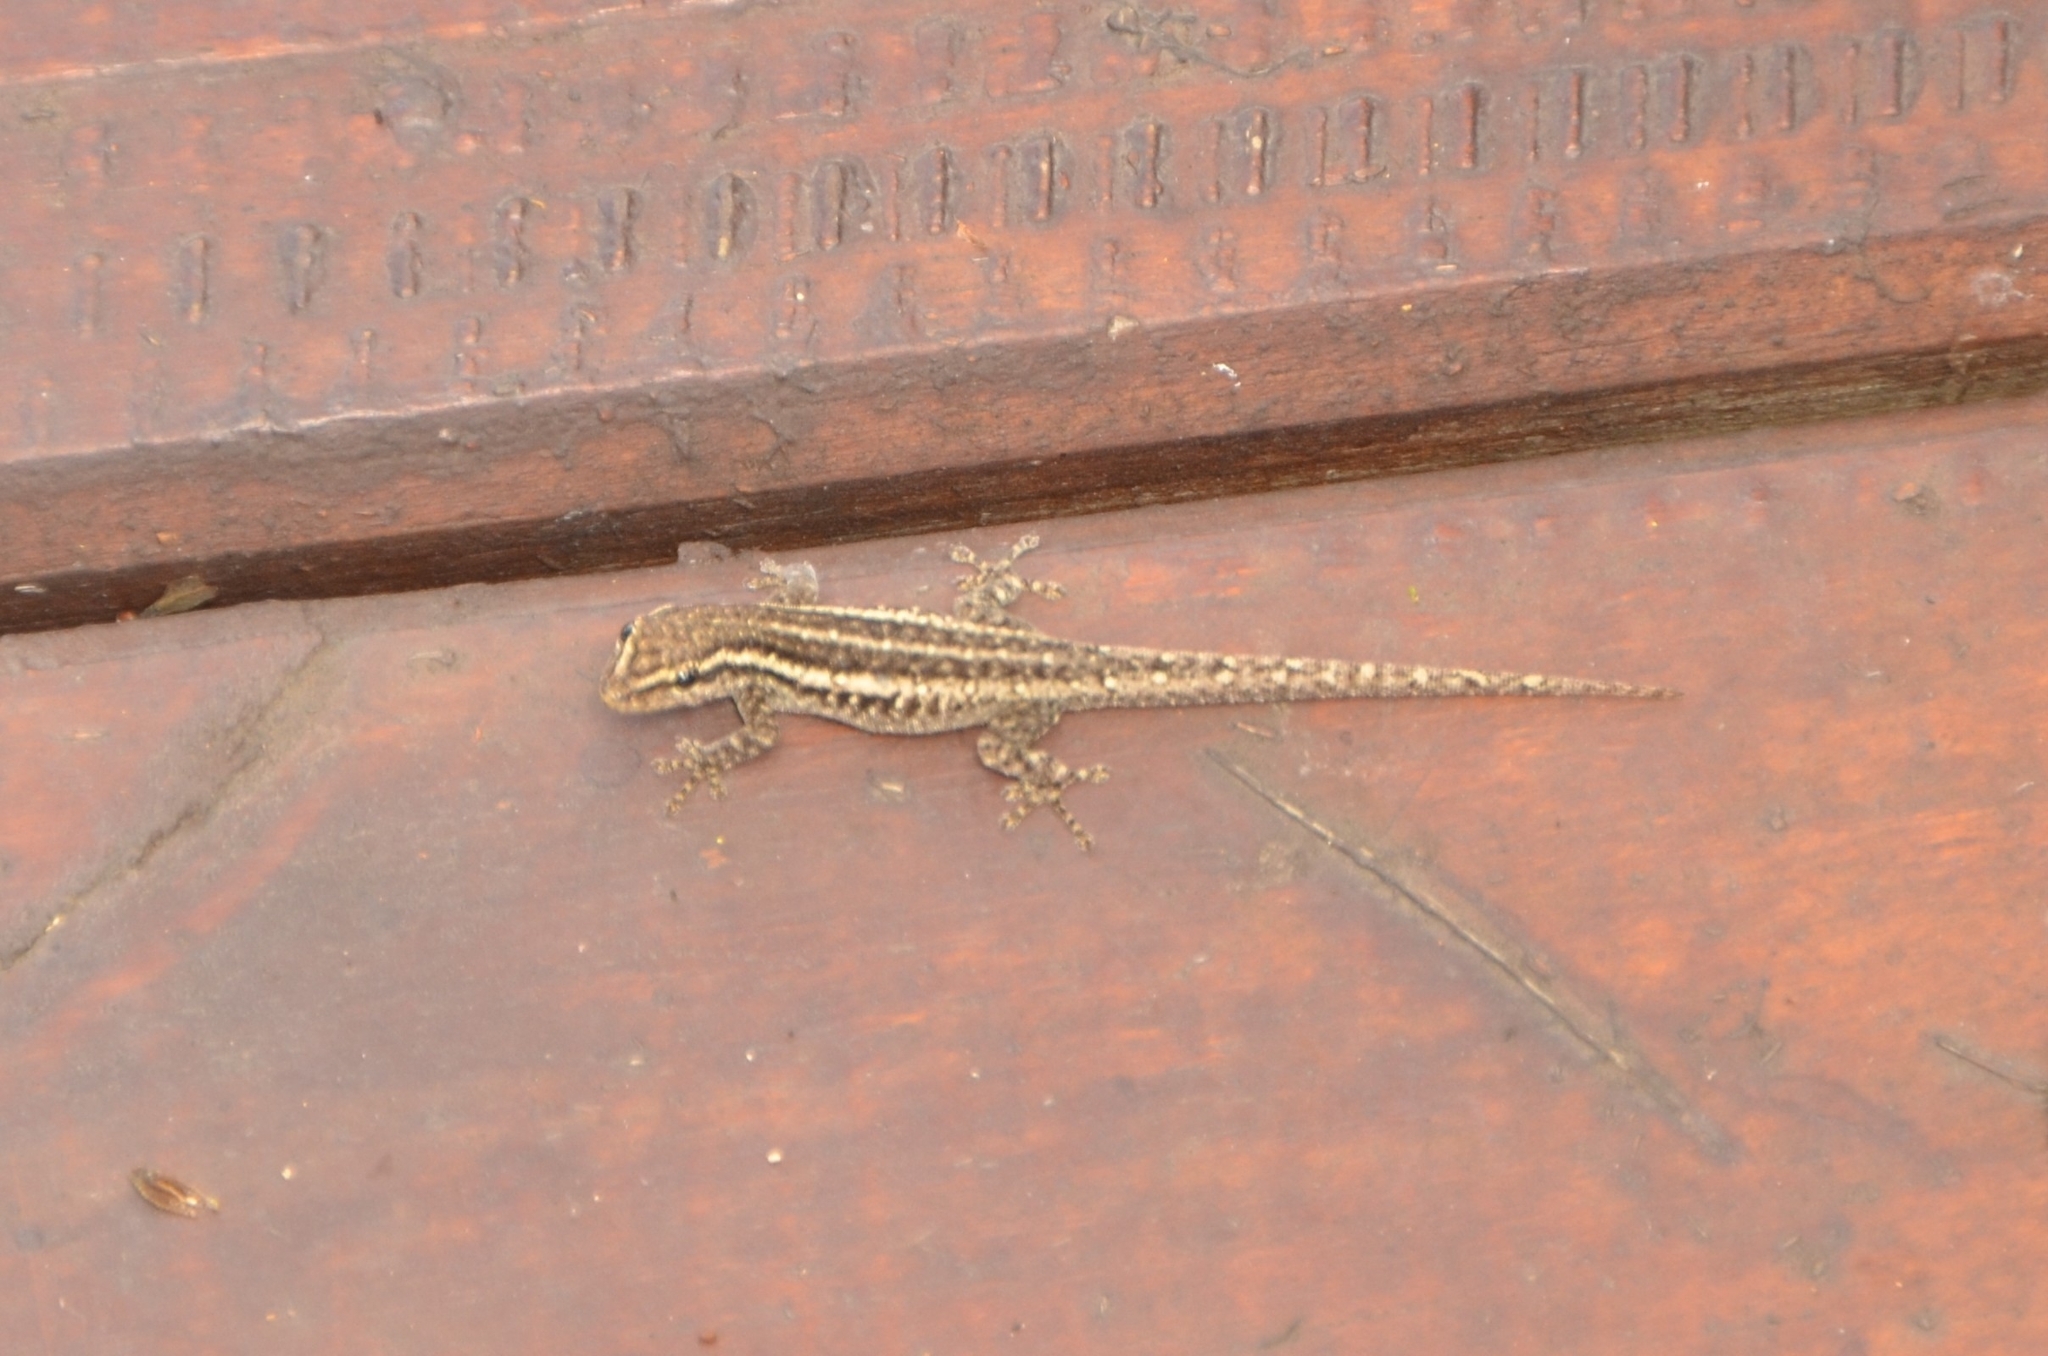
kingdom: Animalia
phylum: Chordata
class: Squamata
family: Gekkonidae
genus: Lygodactylus
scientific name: Lygodactylus capensis
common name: Cape dwarf gecko
